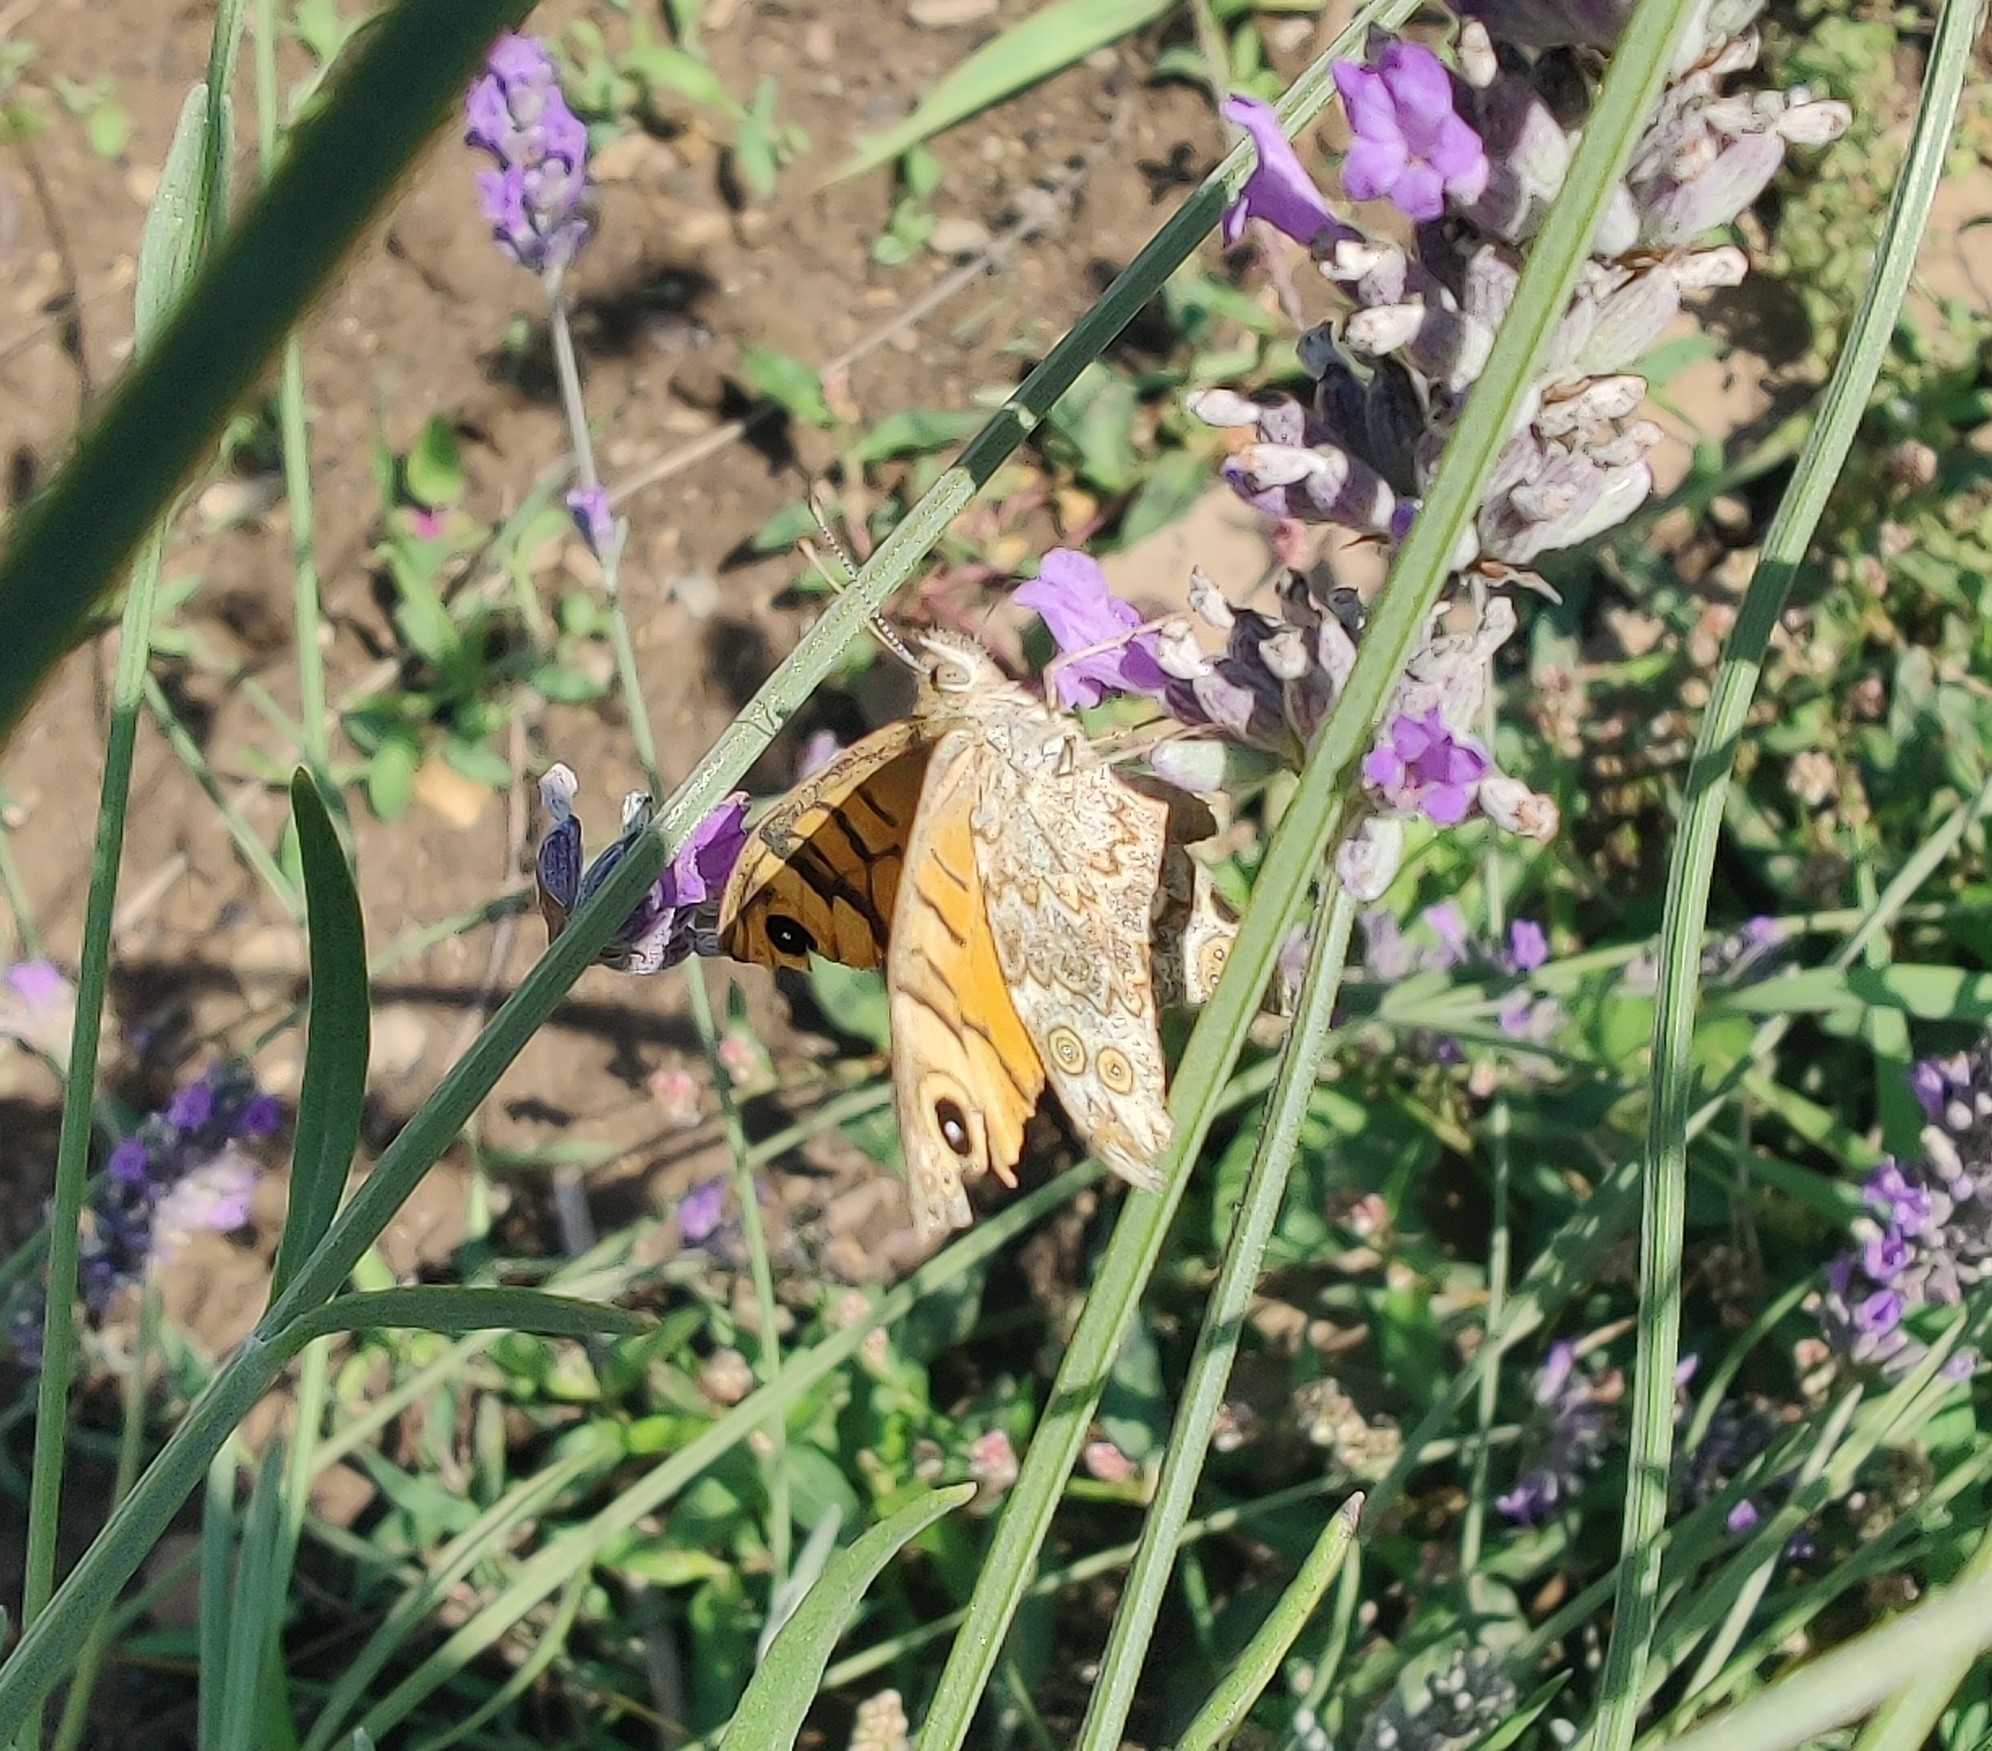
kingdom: Animalia
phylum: Arthropoda
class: Insecta
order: Lepidoptera
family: Nymphalidae
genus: Pararge
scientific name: Pararge Lasiommata megera
